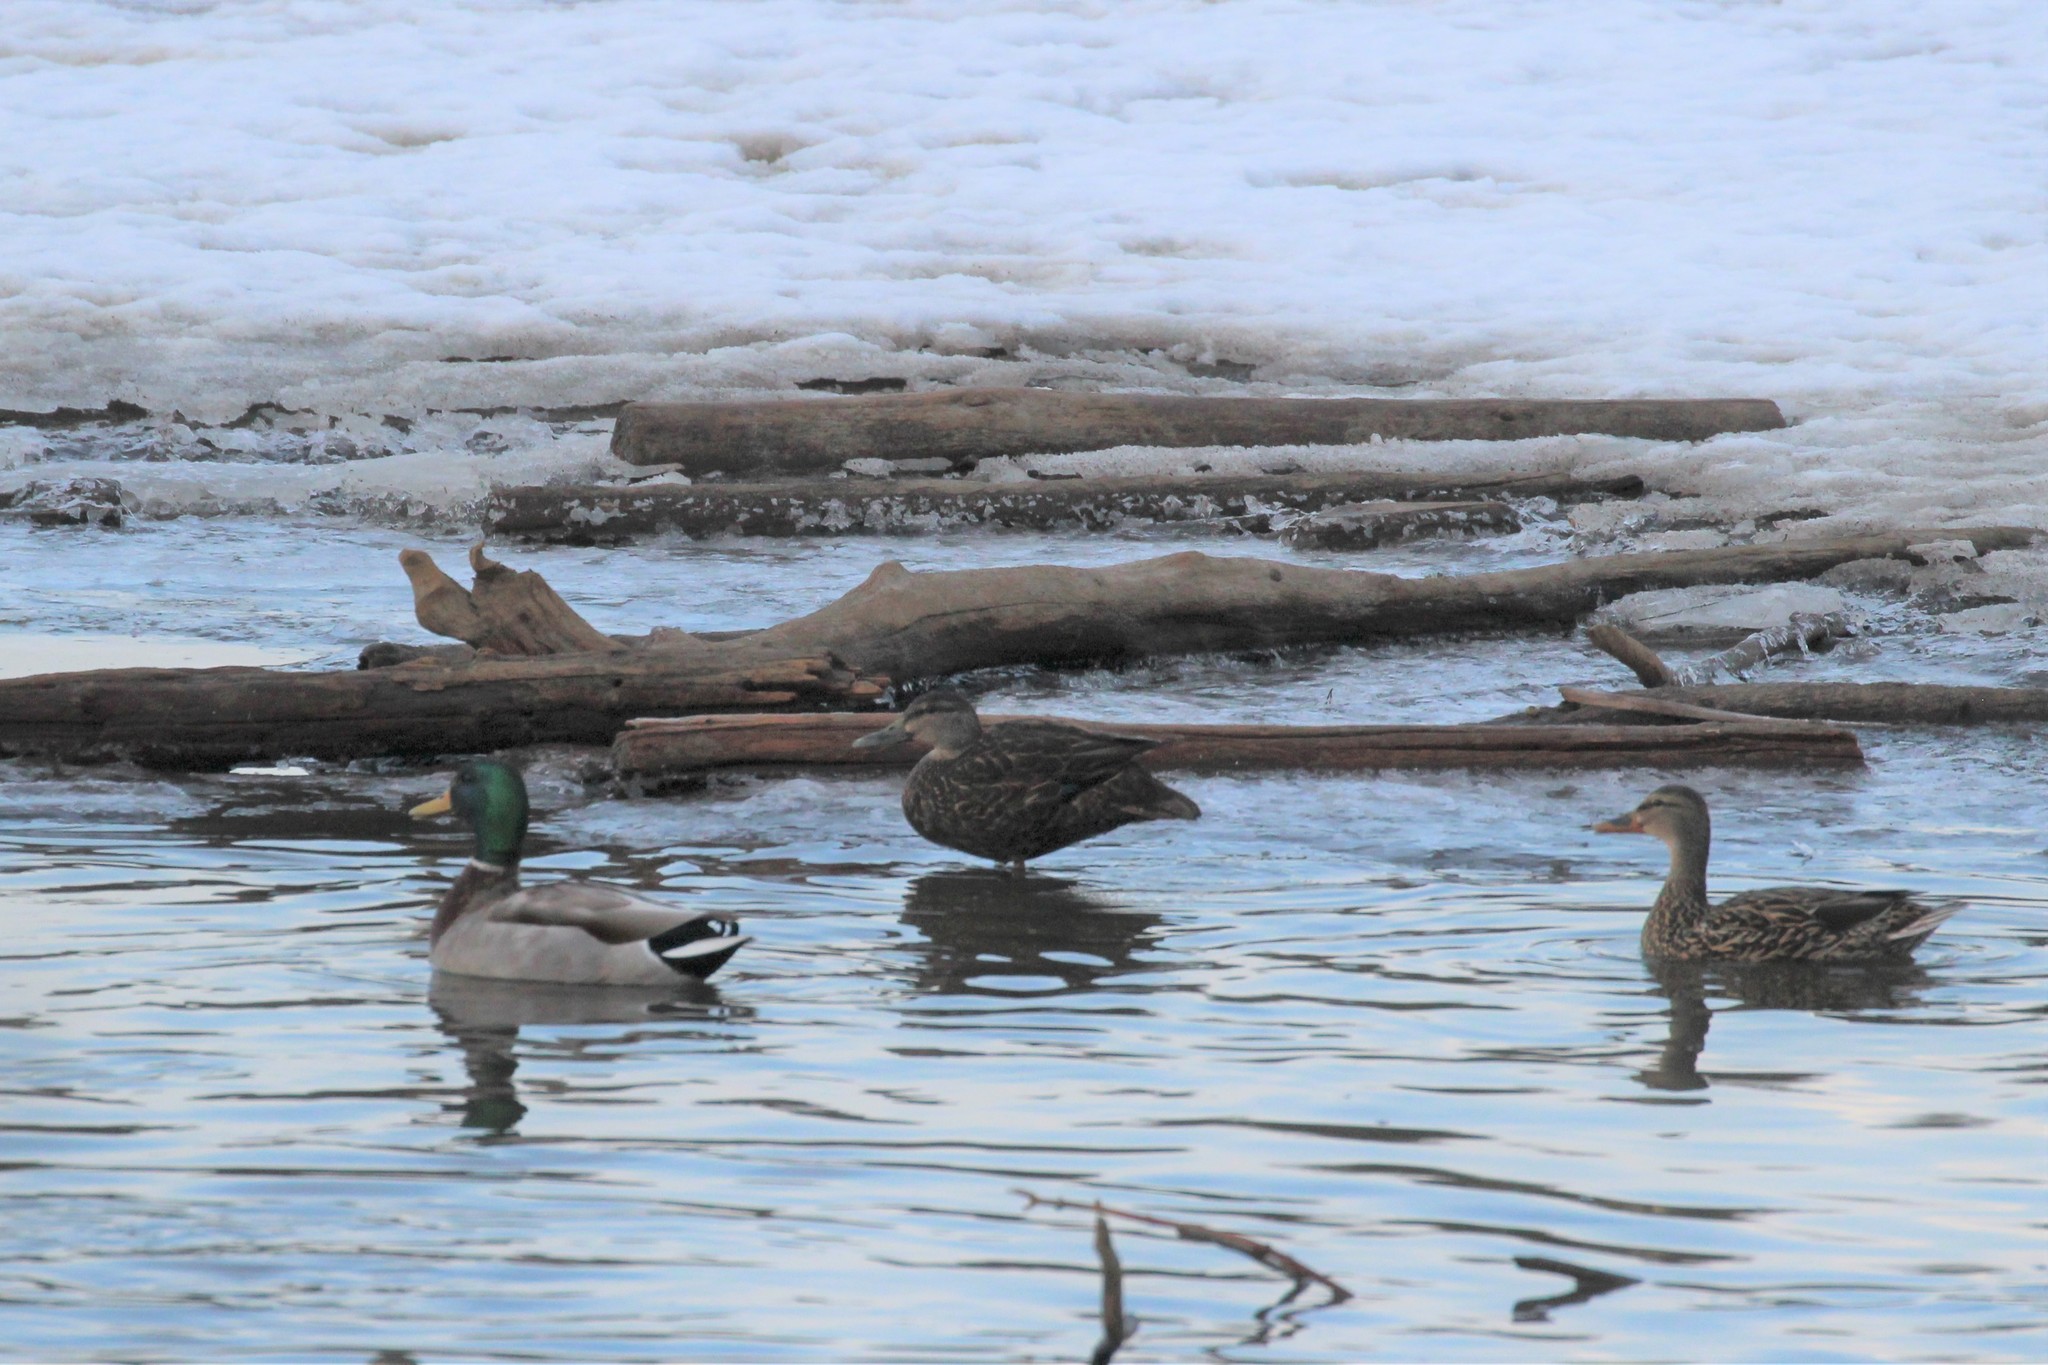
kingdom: Animalia
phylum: Chordata
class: Aves
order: Anseriformes
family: Anatidae
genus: Anas
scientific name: Anas rubripes
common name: American black duck
